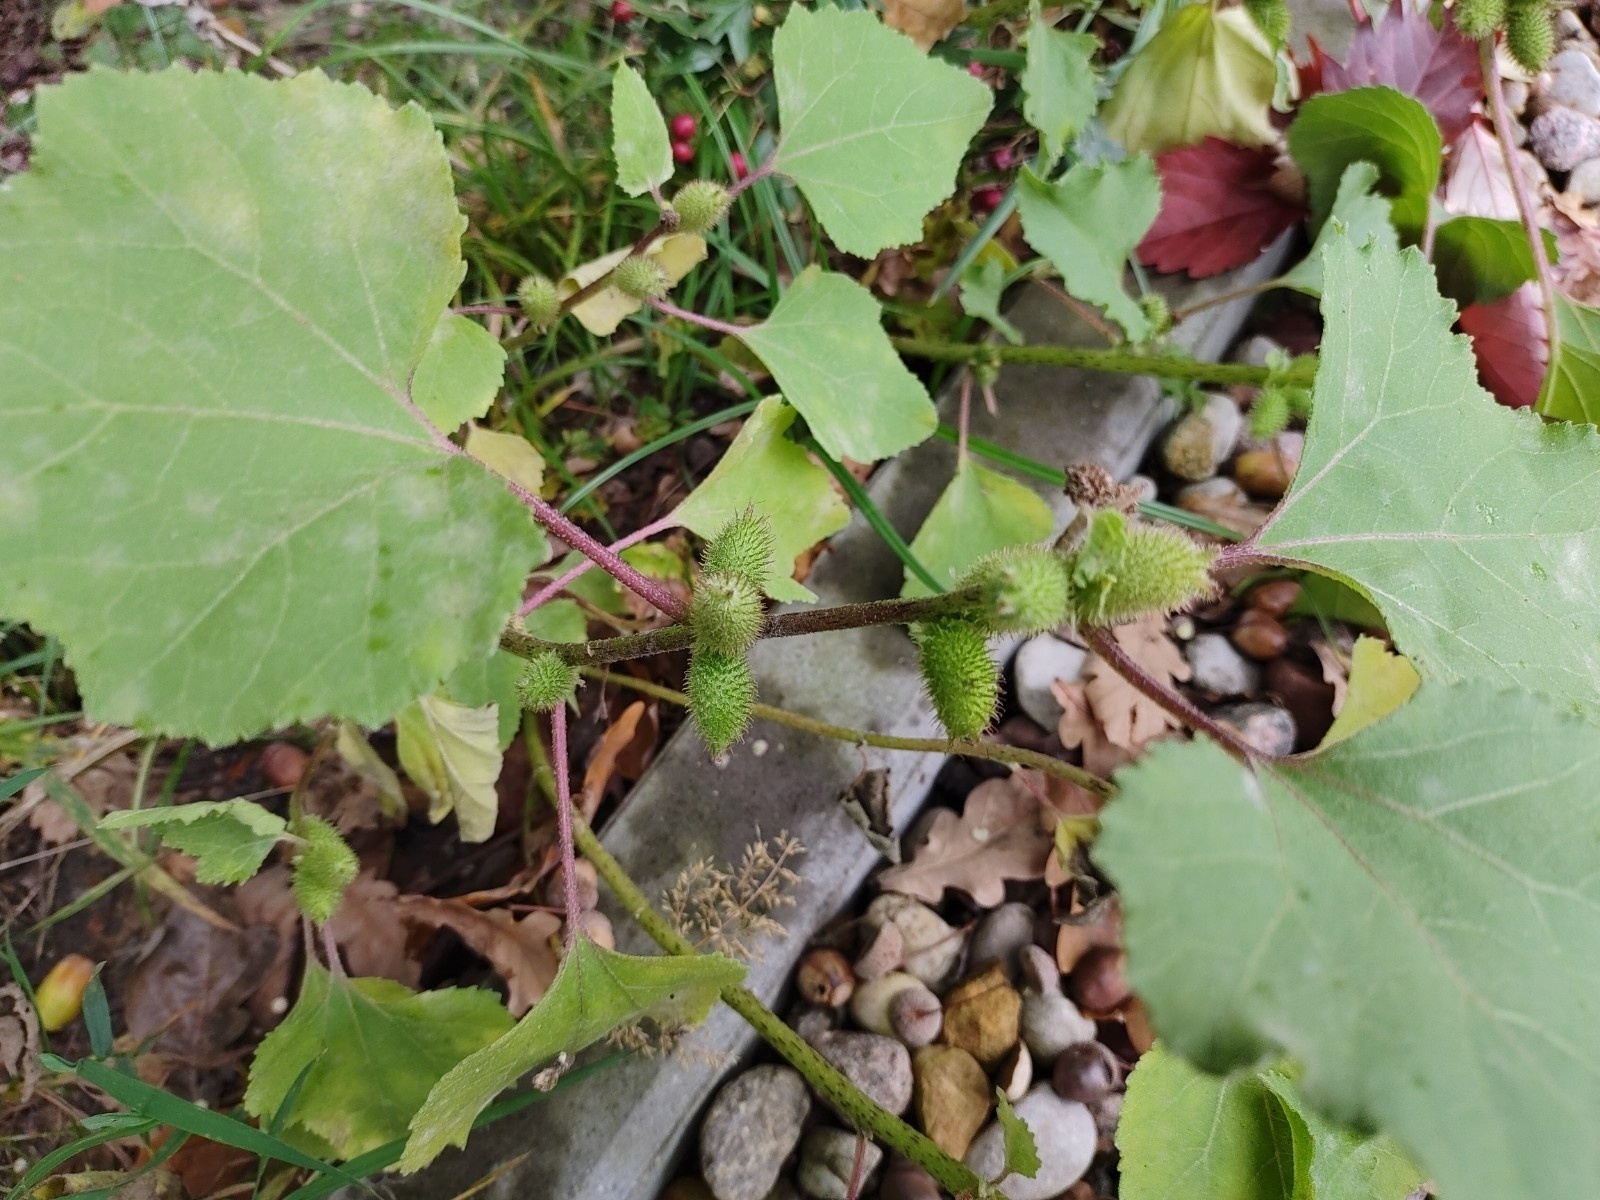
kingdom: Plantae
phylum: Tracheophyta
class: Magnoliopsida
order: Asterales
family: Asteraceae
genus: Xanthium
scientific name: Xanthium strumarium
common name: Rough cocklebur
